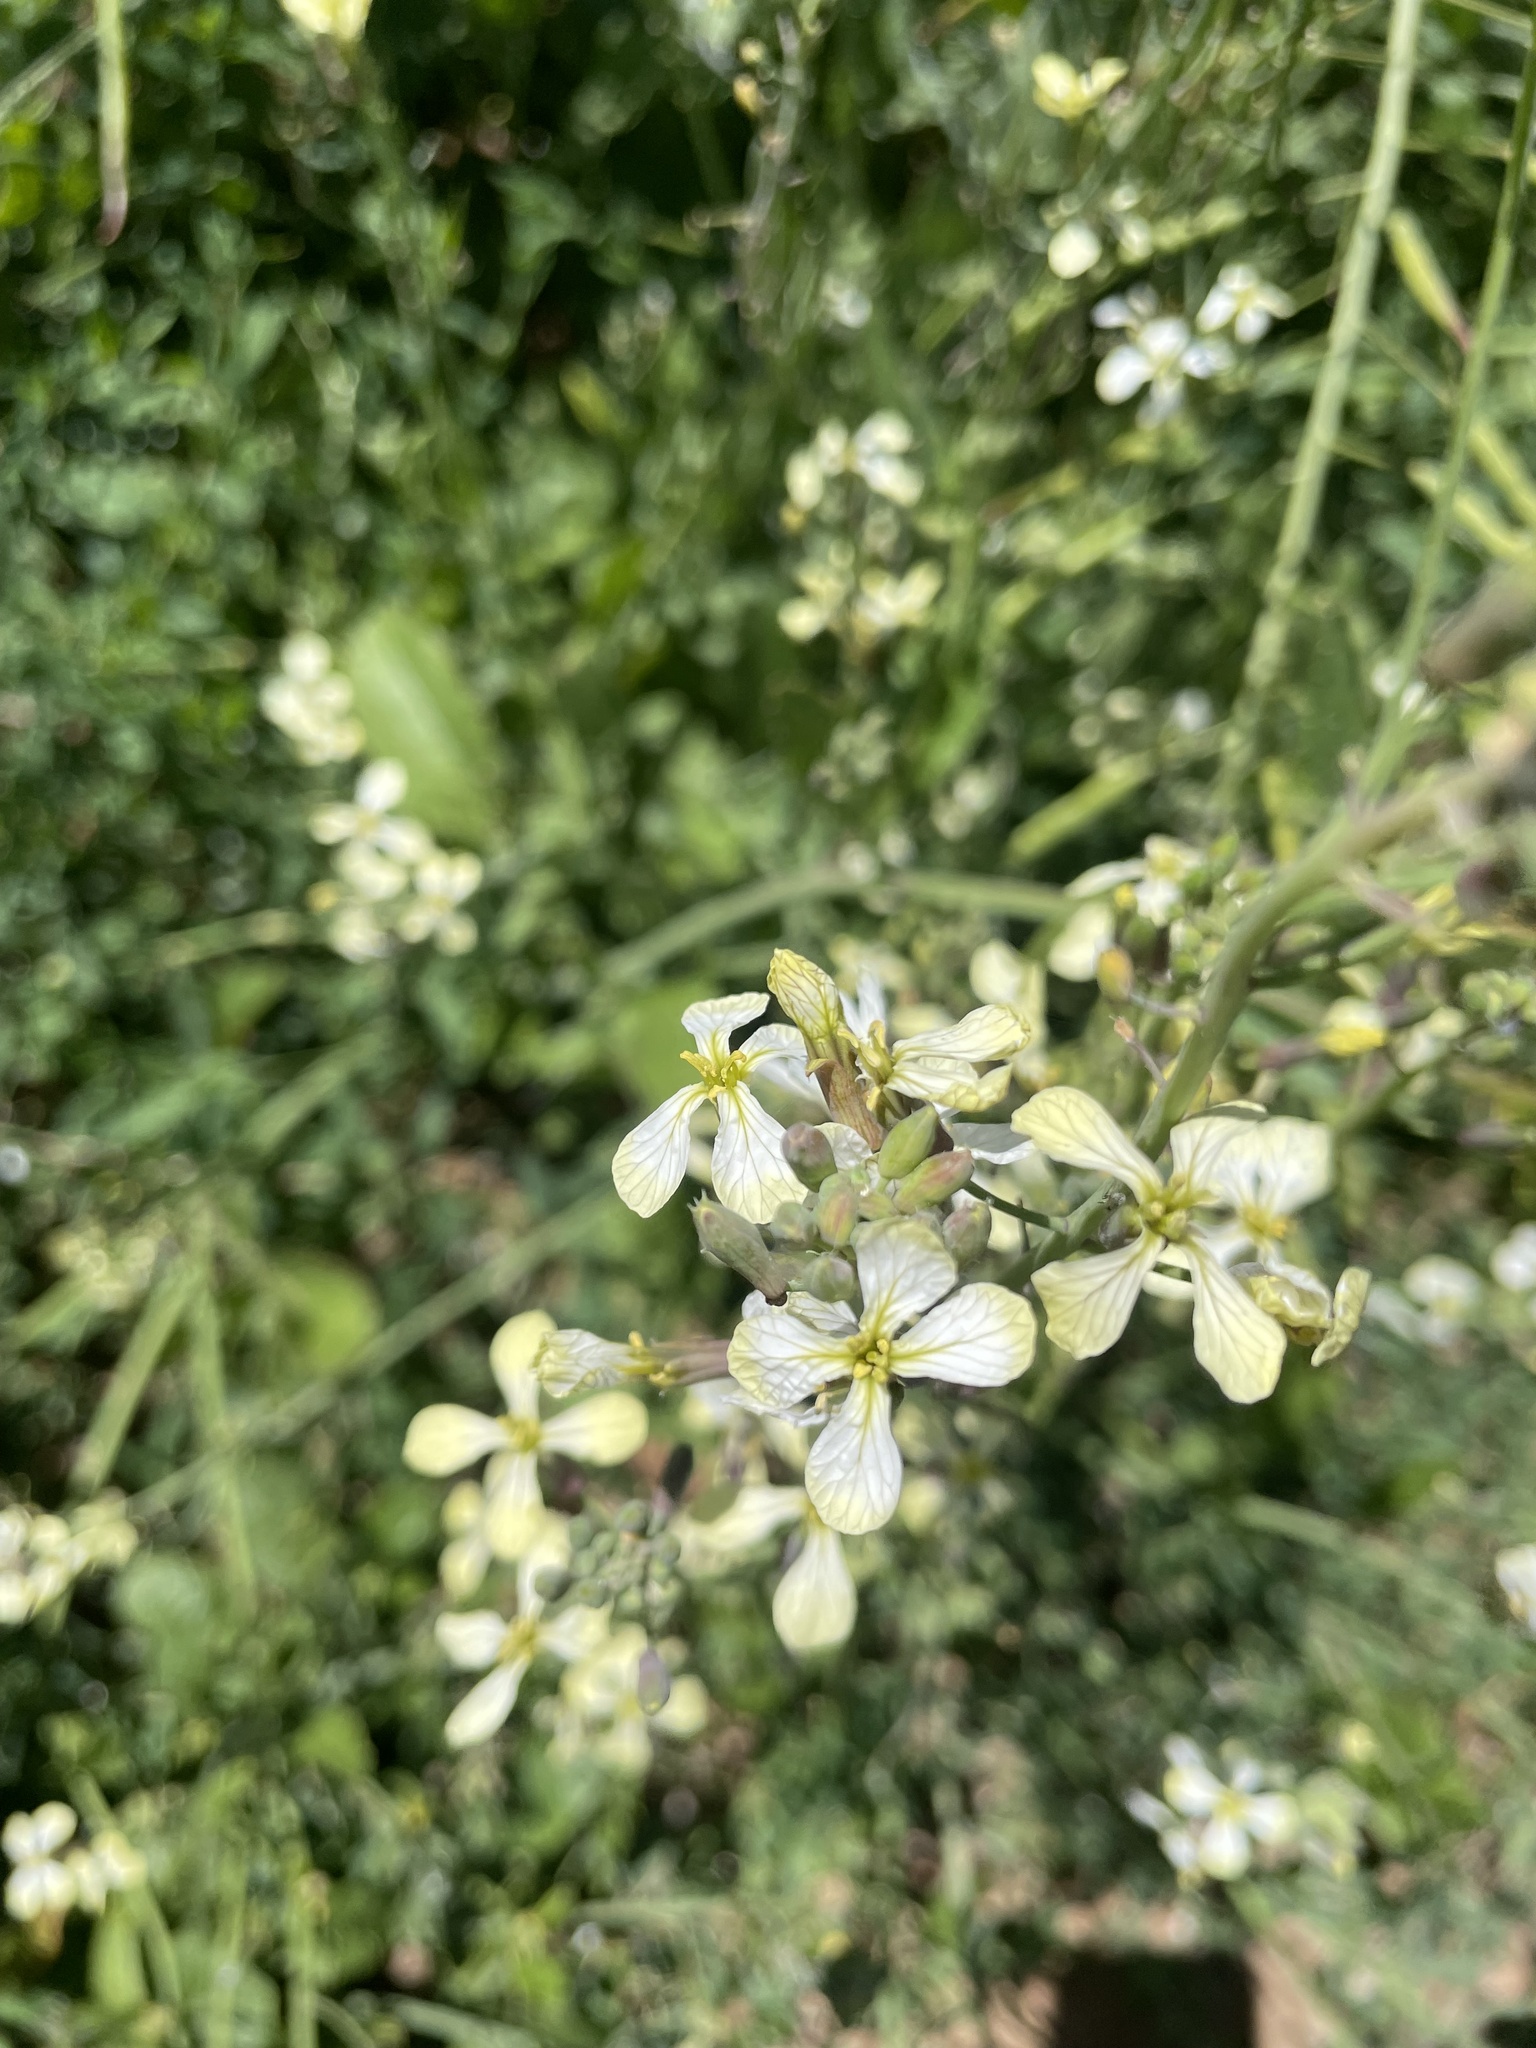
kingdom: Plantae
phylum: Tracheophyta
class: Magnoliopsida
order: Brassicales
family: Brassicaceae
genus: Raphanus
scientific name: Raphanus raphanistrum
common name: Wild radish
